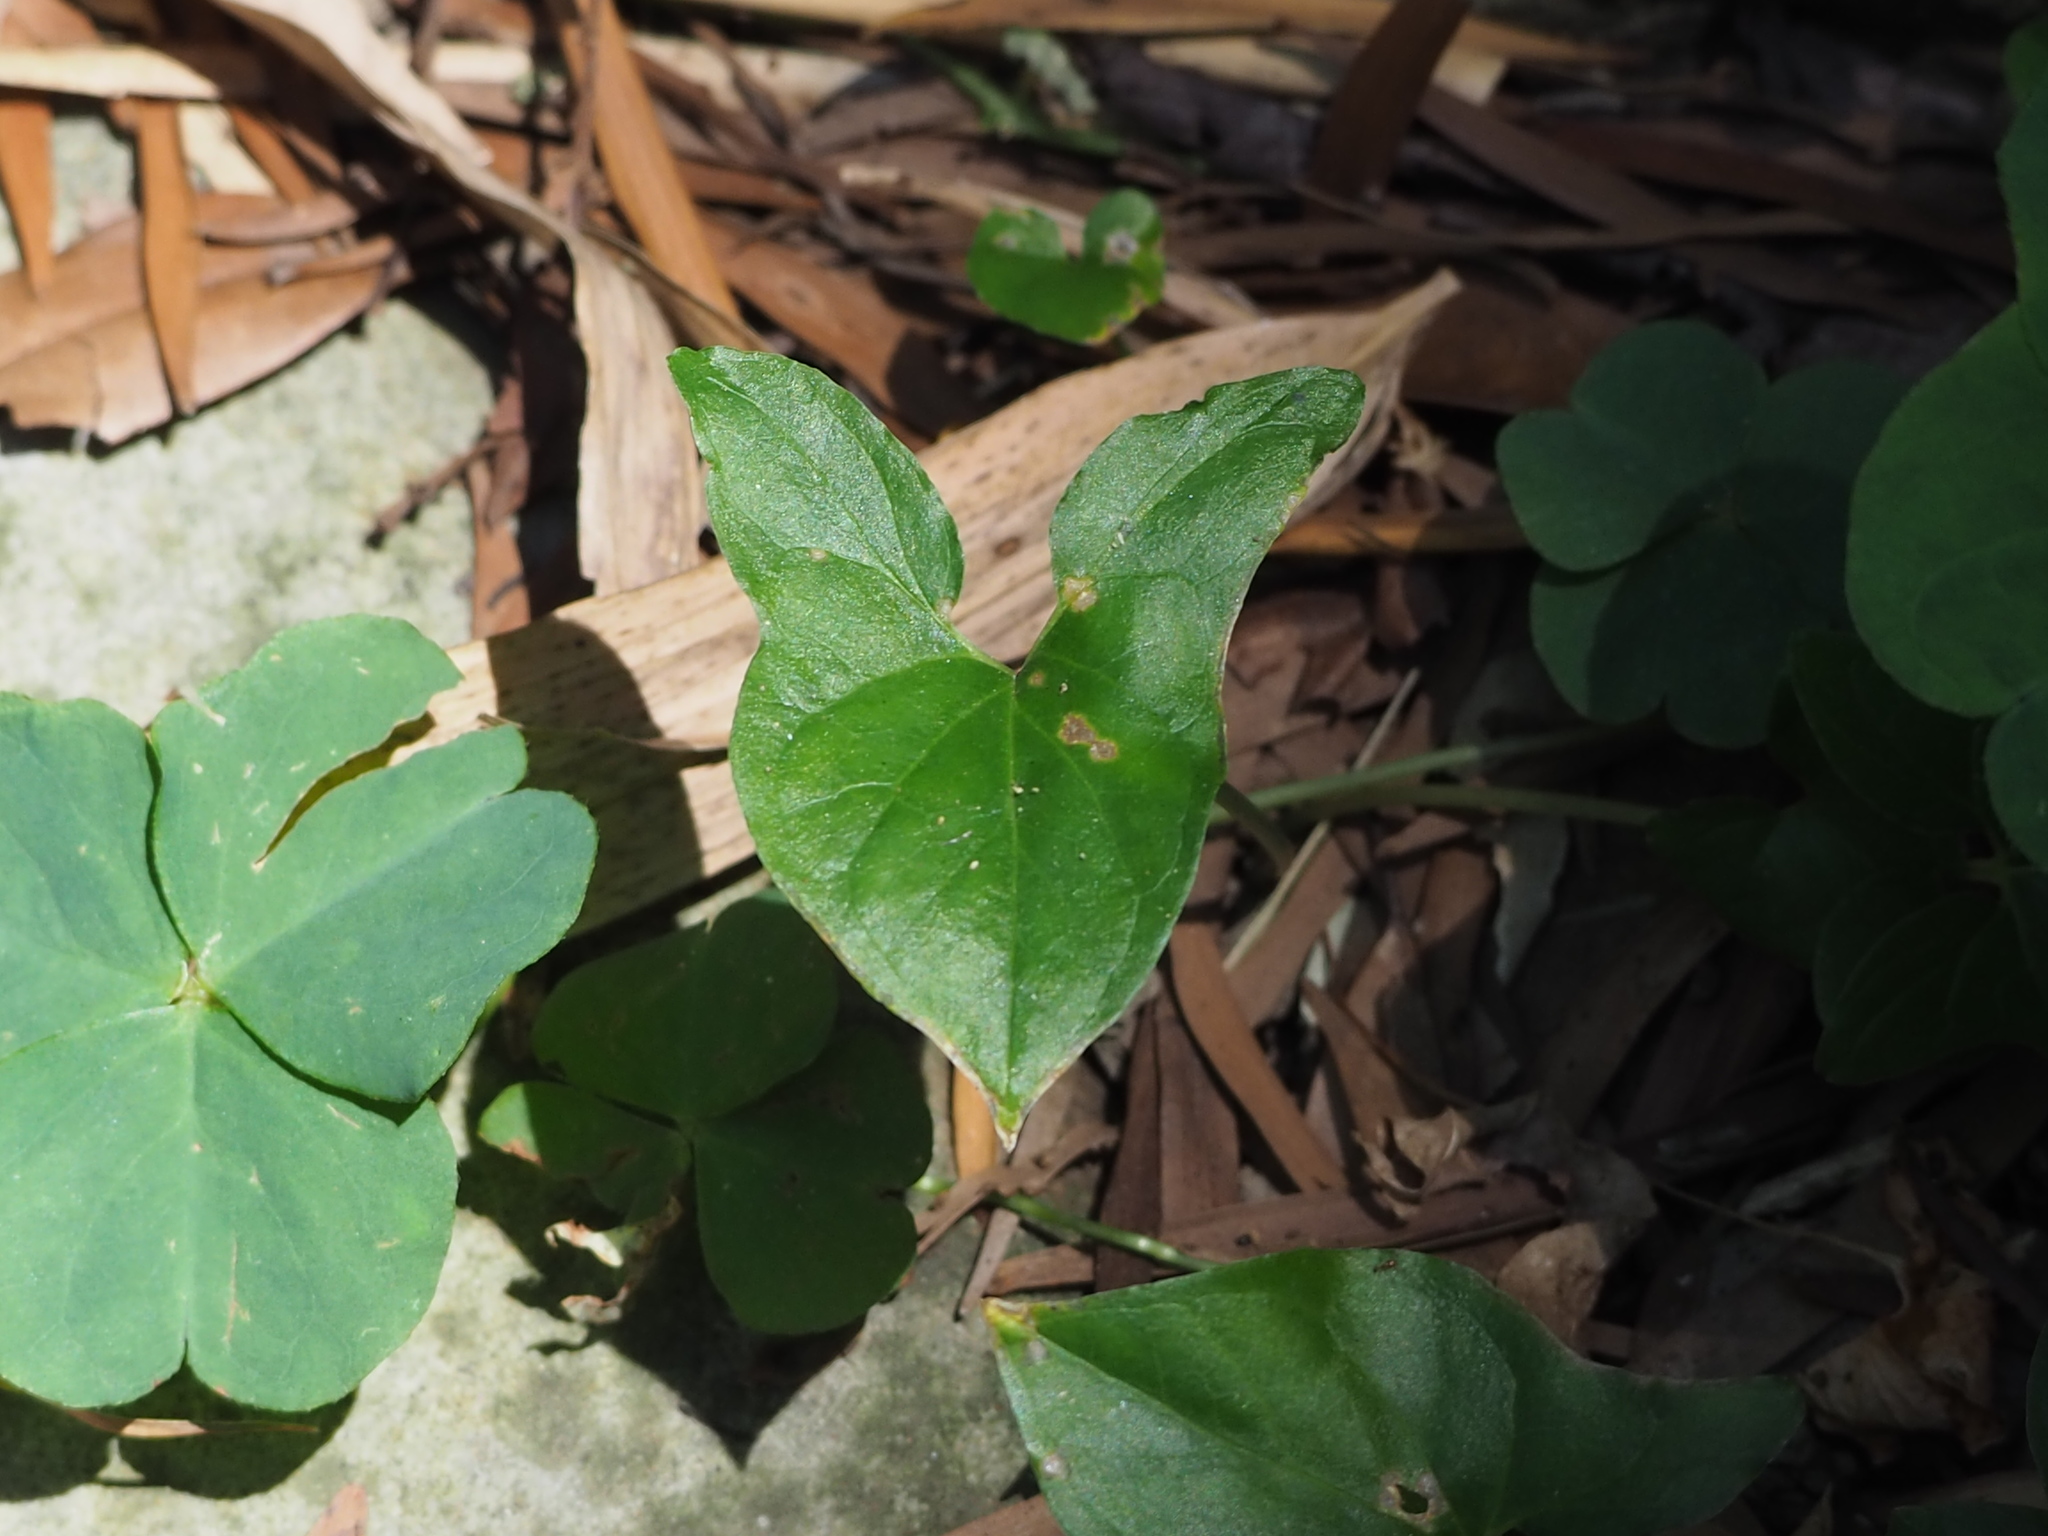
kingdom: Plantae
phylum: Tracheophyta
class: Liliopsida
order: Alismatales
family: Araceae
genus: Typhonium
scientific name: Typhonium blumei
